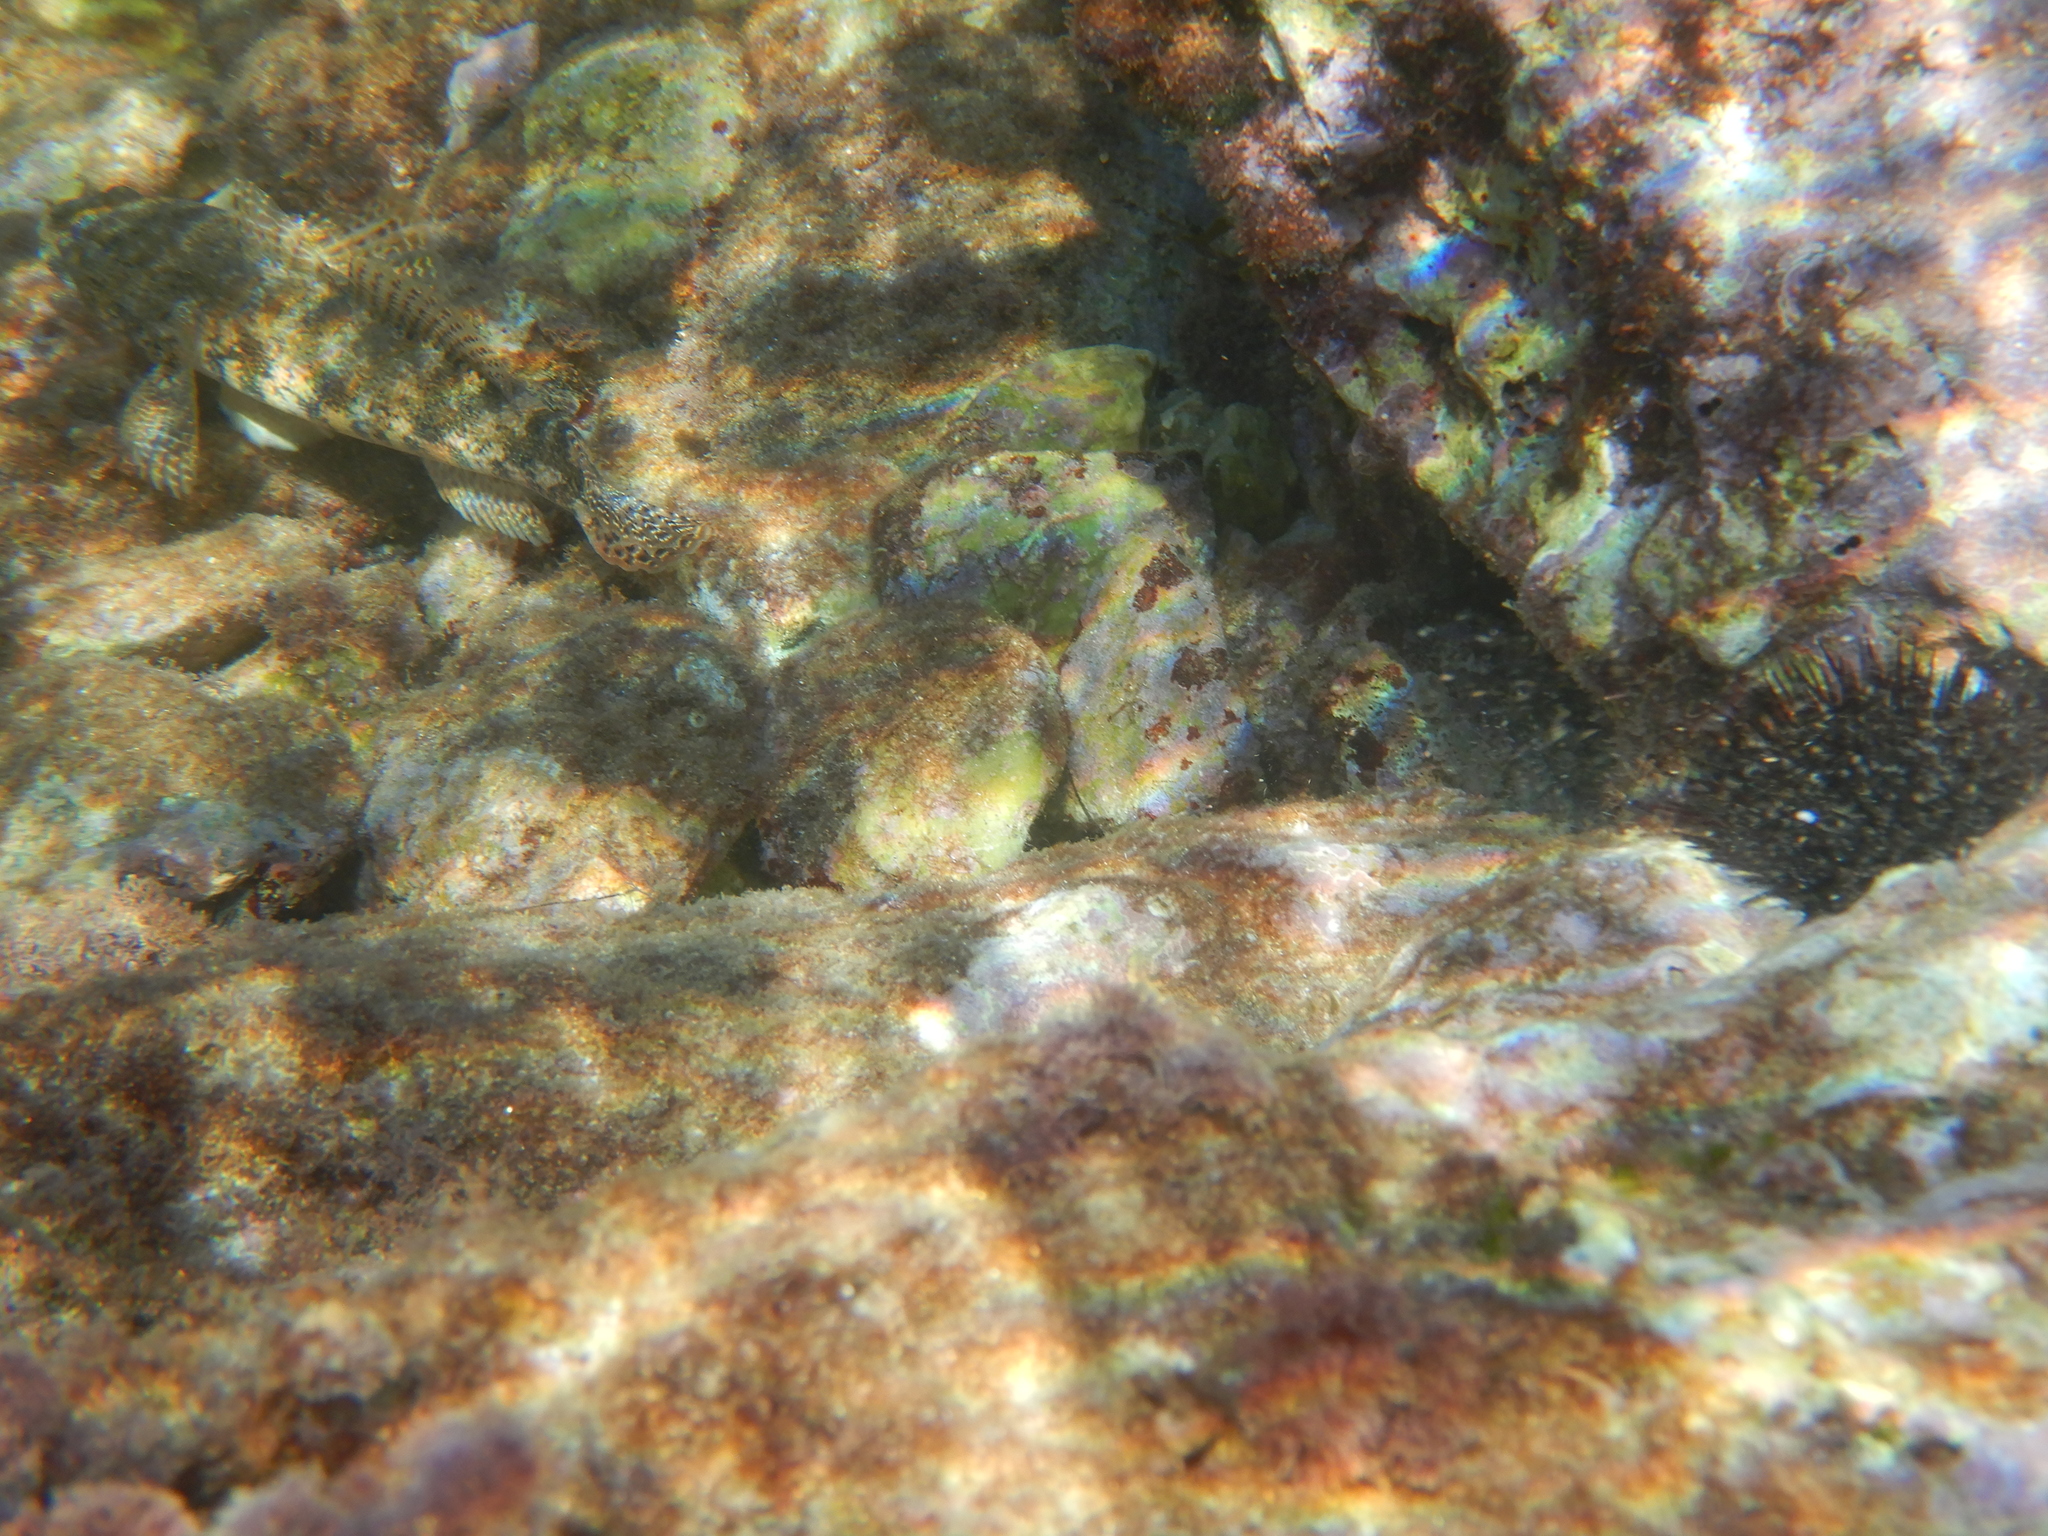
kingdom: Animalia
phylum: Chordata
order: Perciformes
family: Gobiidae
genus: Gobius
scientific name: Gobius cobitis
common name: Giant goby
